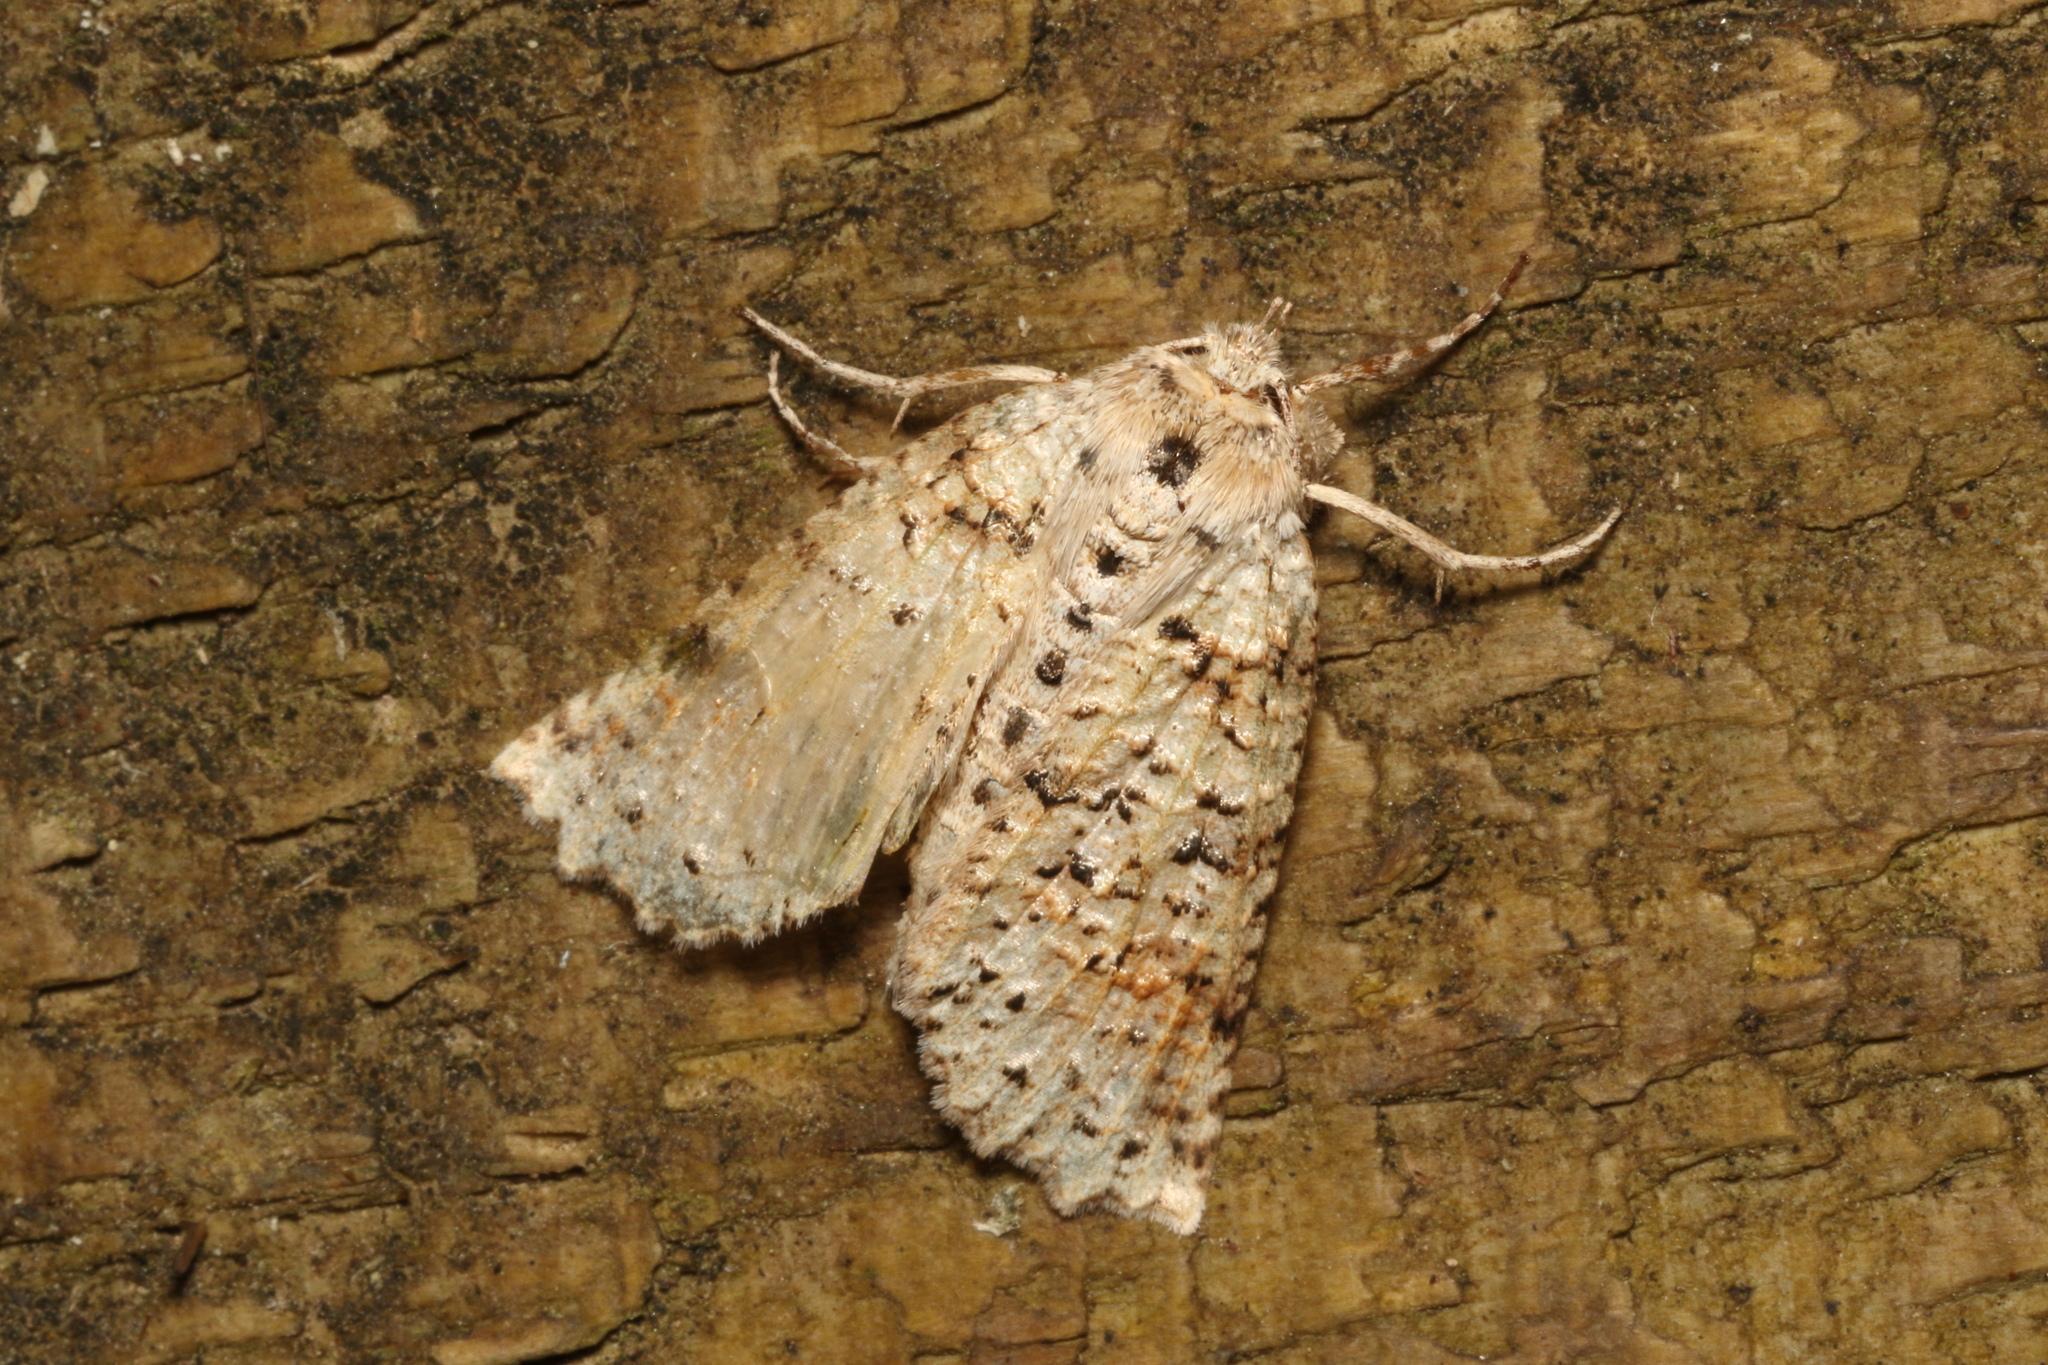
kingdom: Animalia
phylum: Arthropoda
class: Insecta
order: Lepidoptera
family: Geometridae
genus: Declana
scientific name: Declana floccosa
